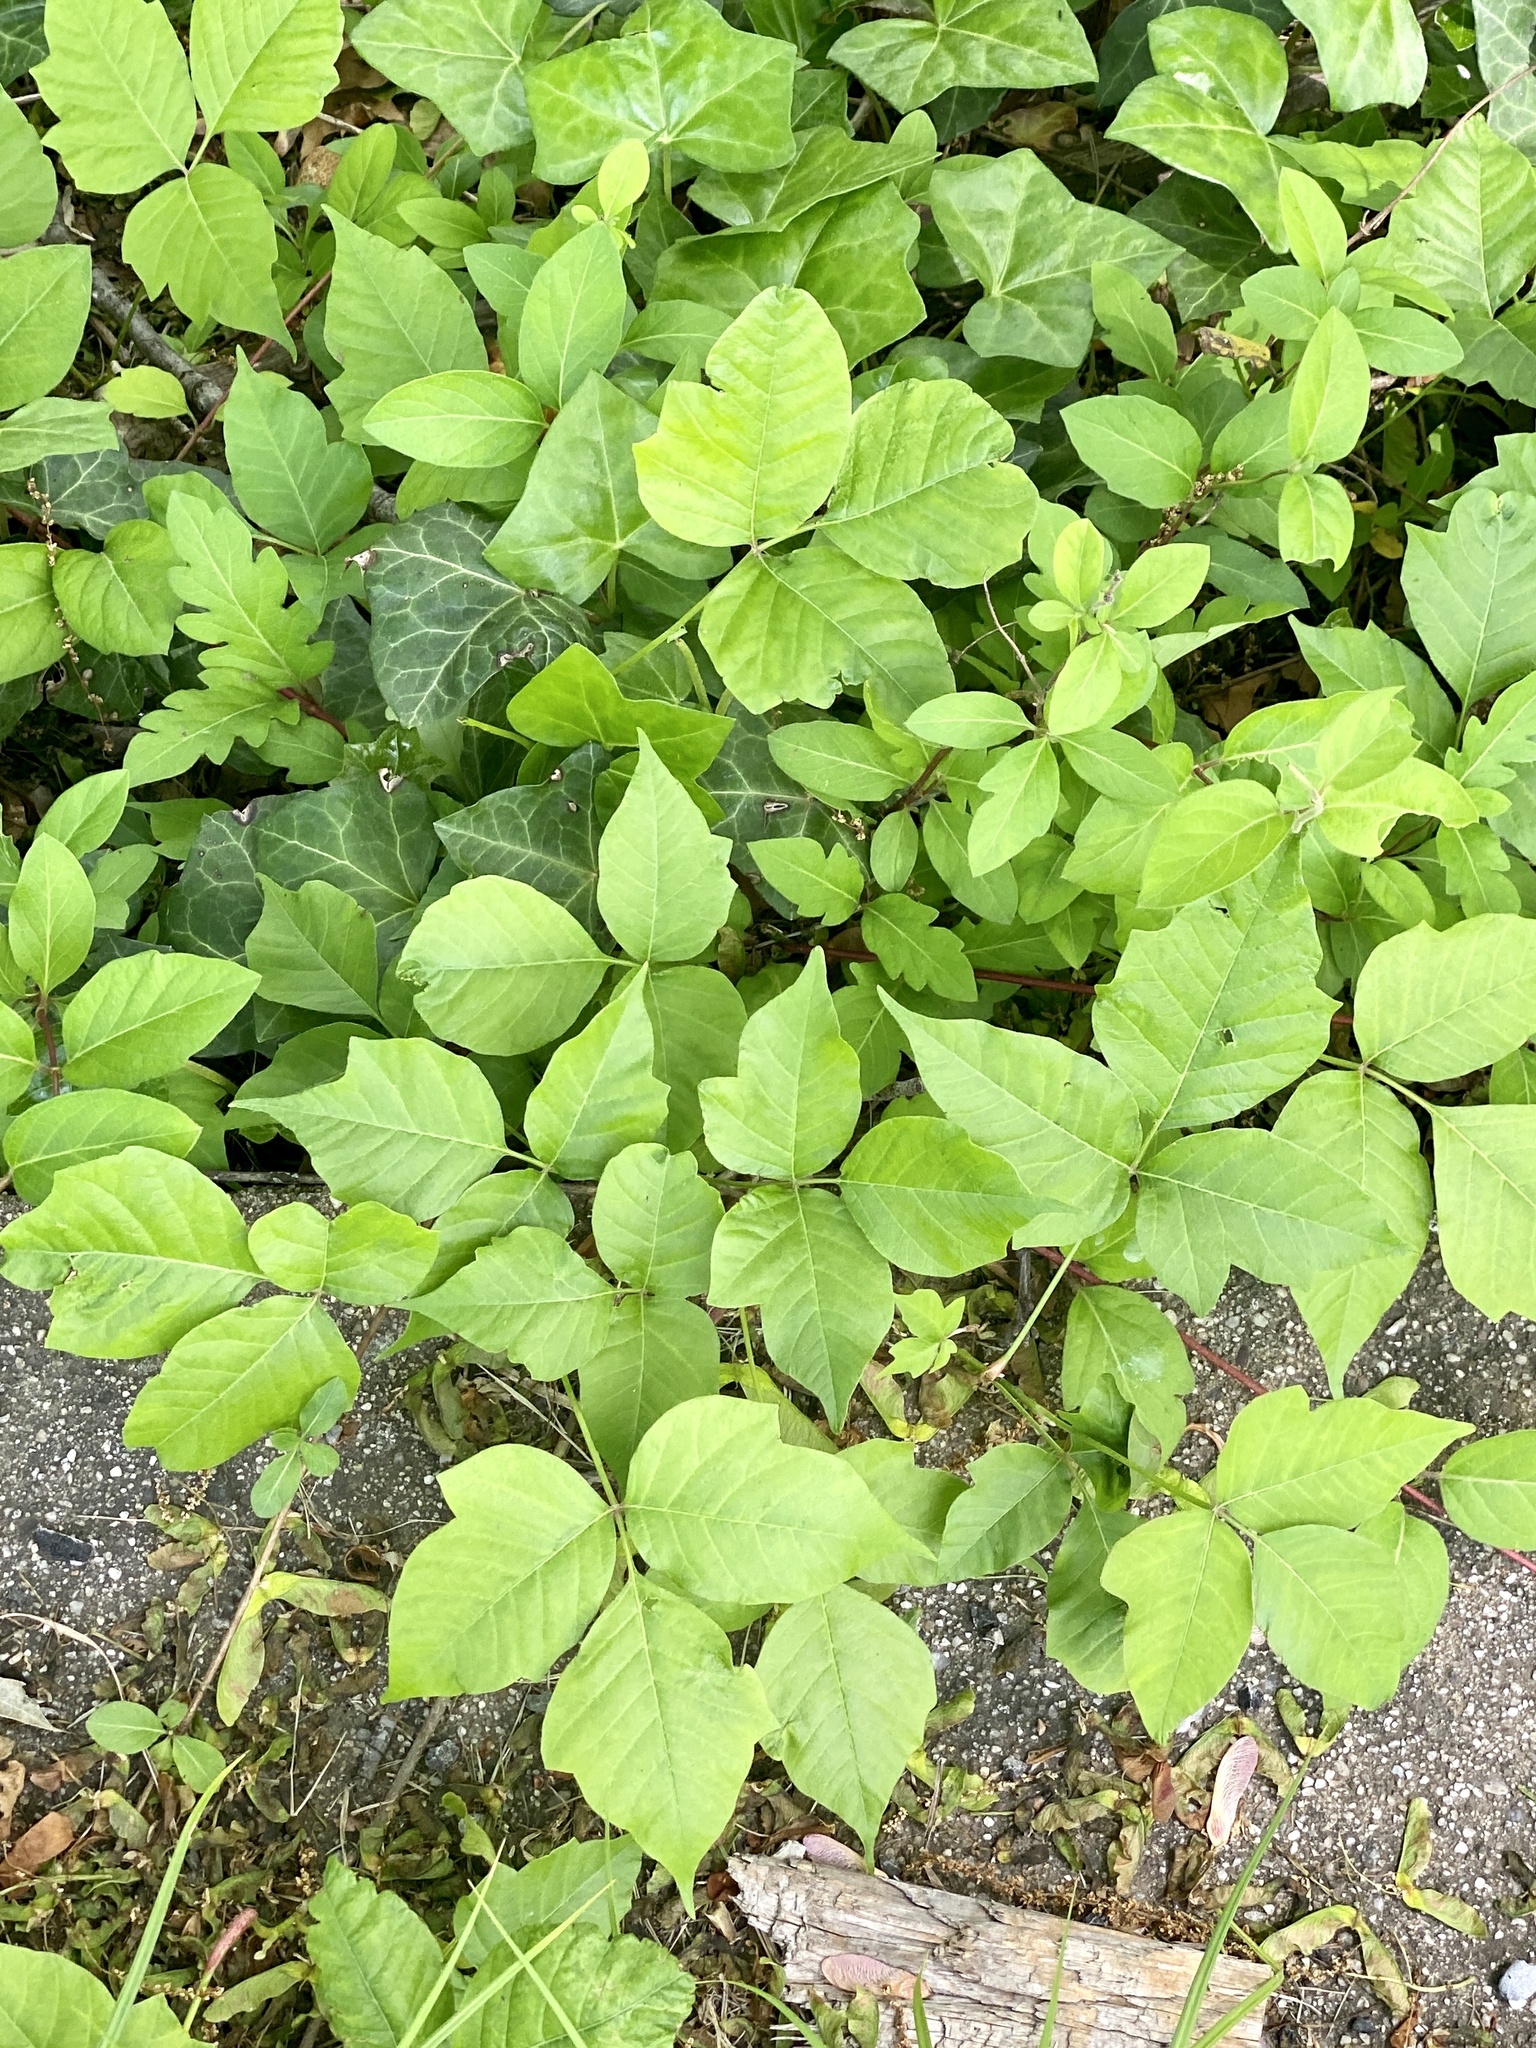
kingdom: Plantae
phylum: Tracheophyta
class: Magnoliopsida
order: Sapindales
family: Anacardiaceae
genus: Toxicodendron
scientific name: Toxicodendron radicans
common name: Poison ivy
